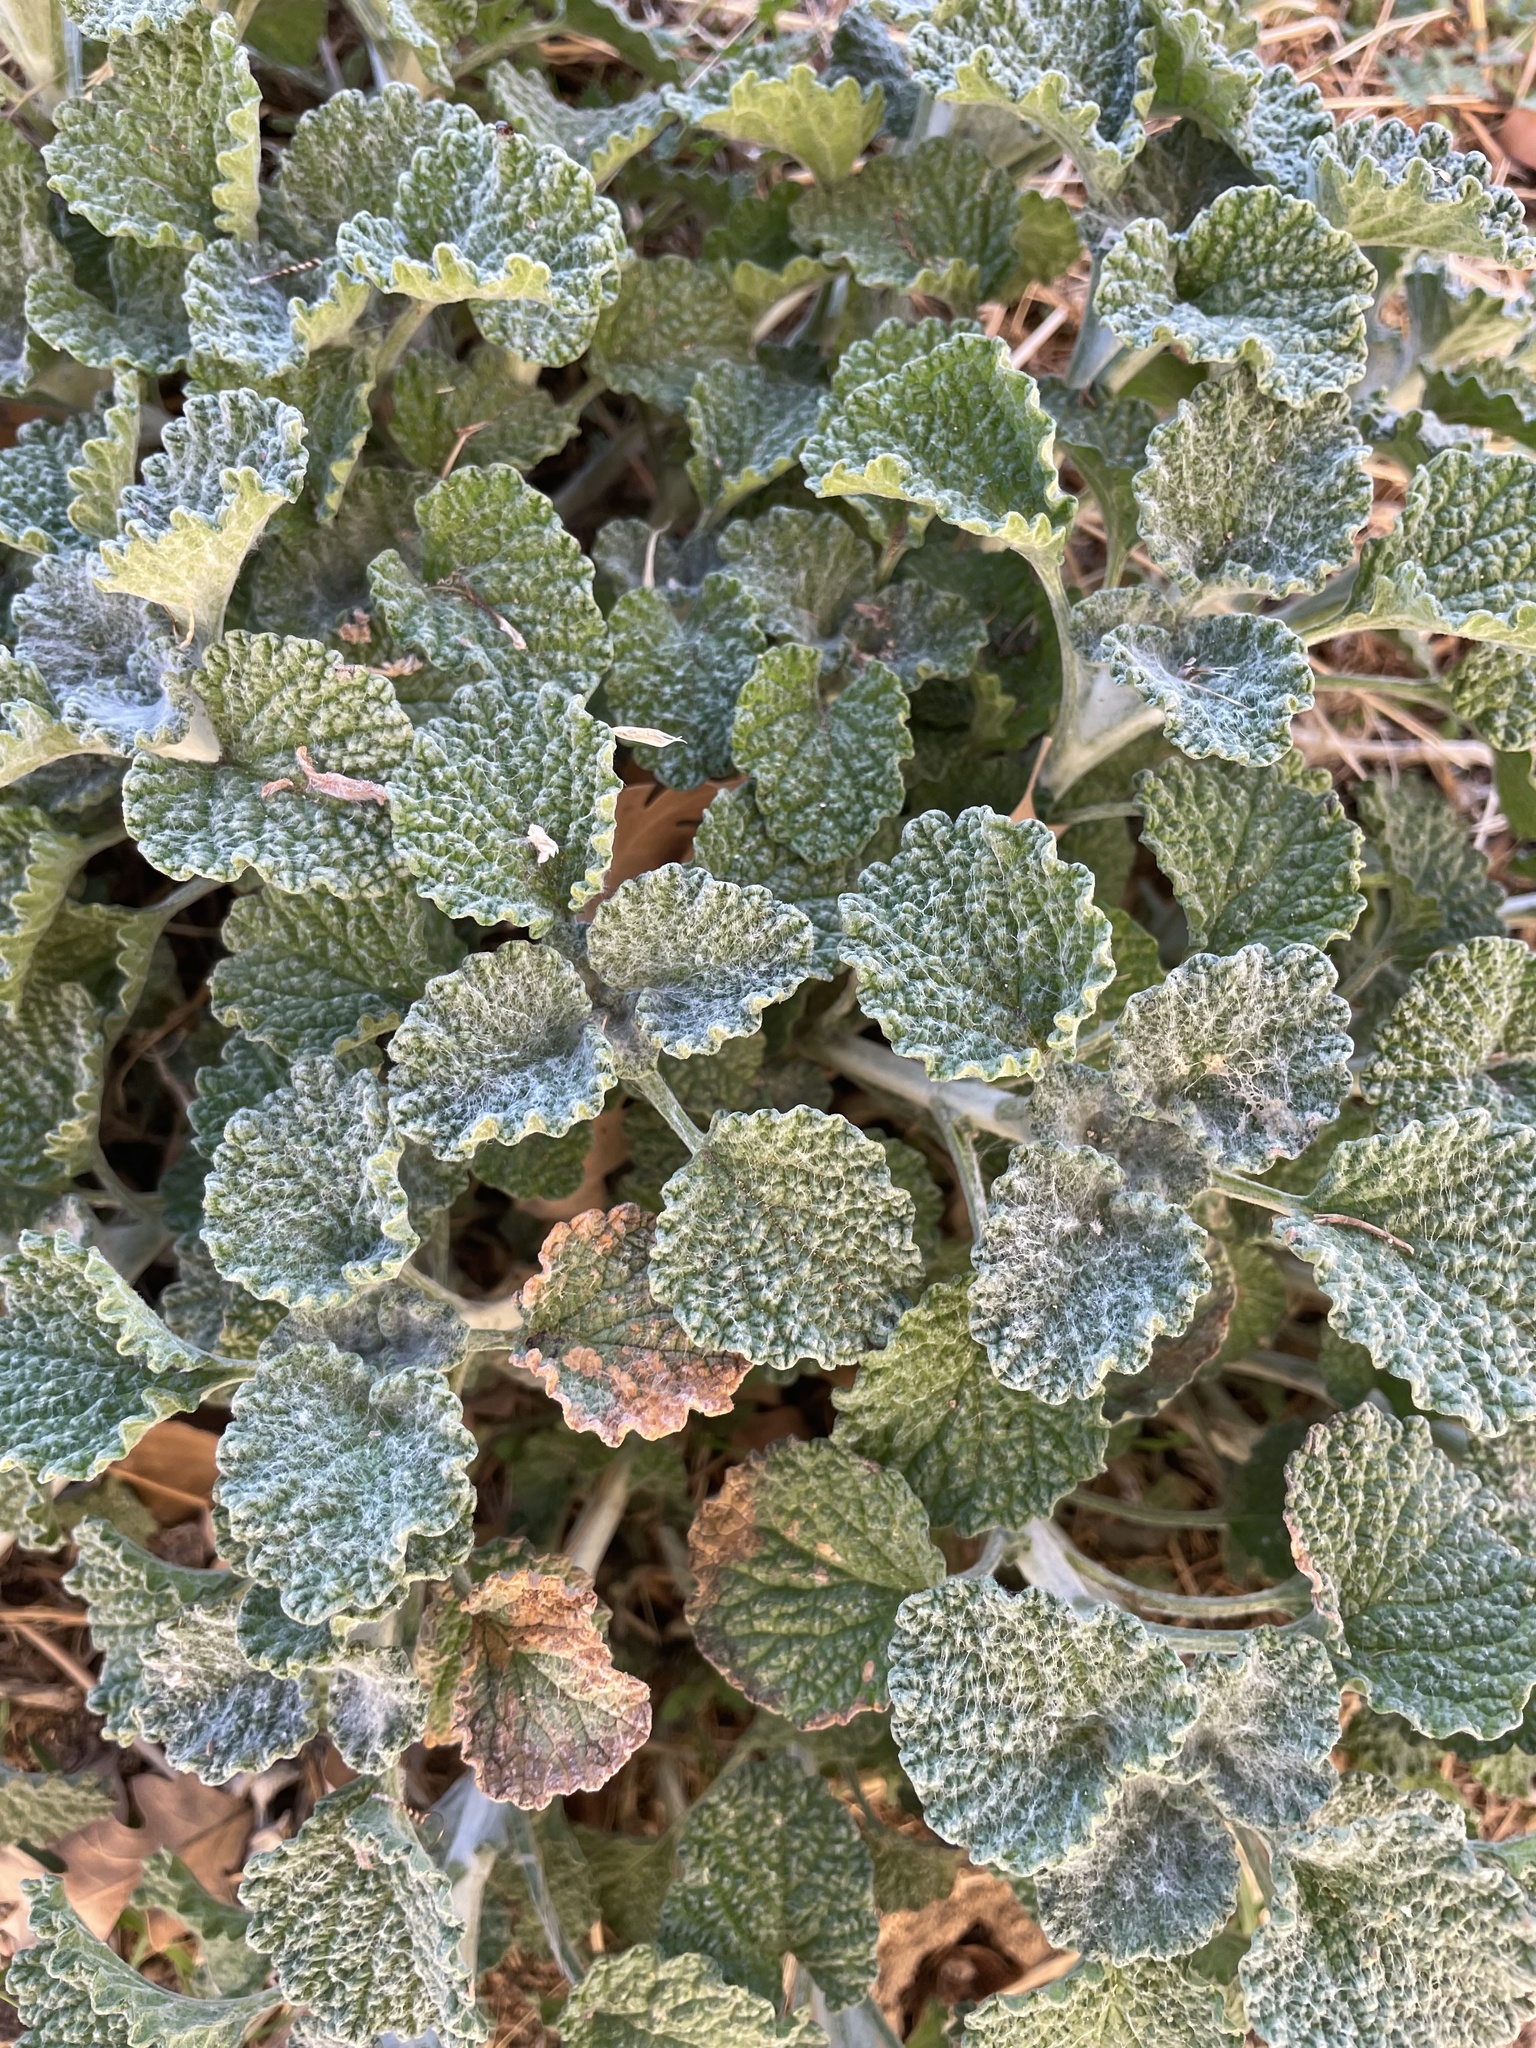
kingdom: Plantae
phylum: Tracheophyta
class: Magnoliopsida
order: Lamiales
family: Lamiaceae
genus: Marrubium
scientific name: Marrubium vulgare
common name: Horehound
